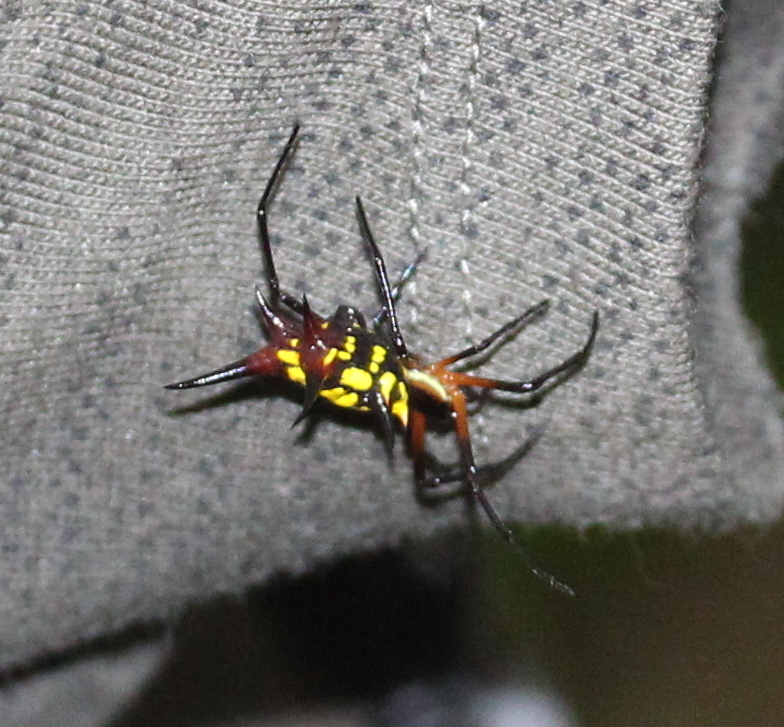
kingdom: Animalia
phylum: Arthropoda
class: Arachnida
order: Araneae
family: Araneidae
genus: Micrathena
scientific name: Micrathena kirbyi
